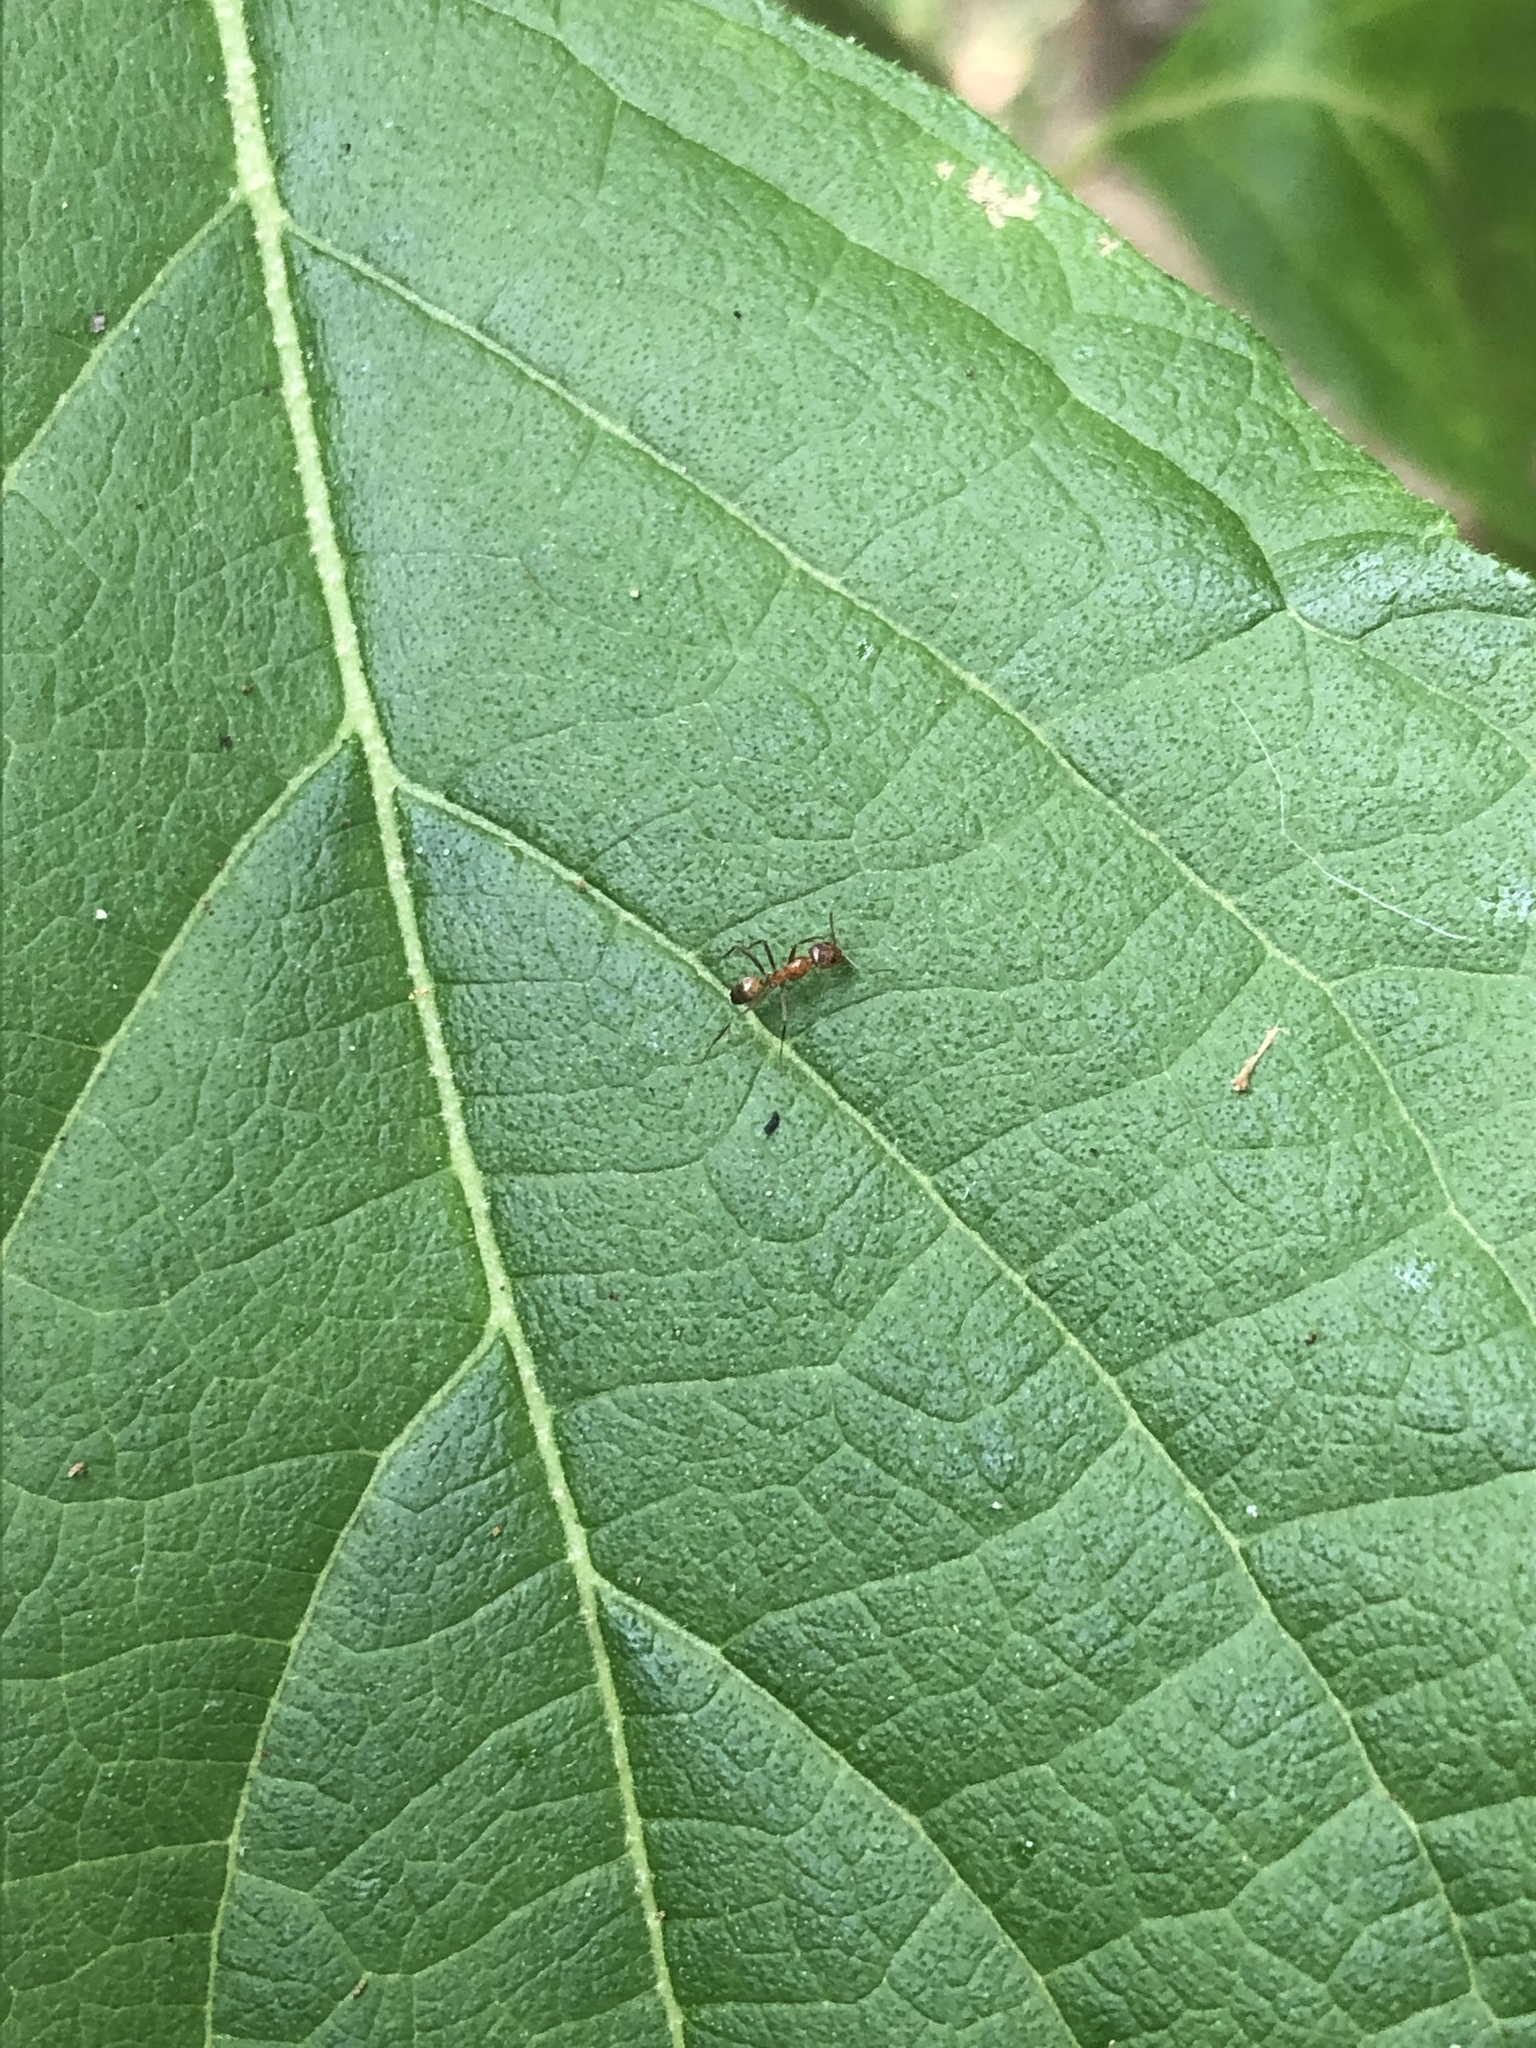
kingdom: Animalia
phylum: Arthropoda
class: Insecta
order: Hymenoptera
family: Formicidae
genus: Dorymyrmex
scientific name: Dorymyrmex bureni
